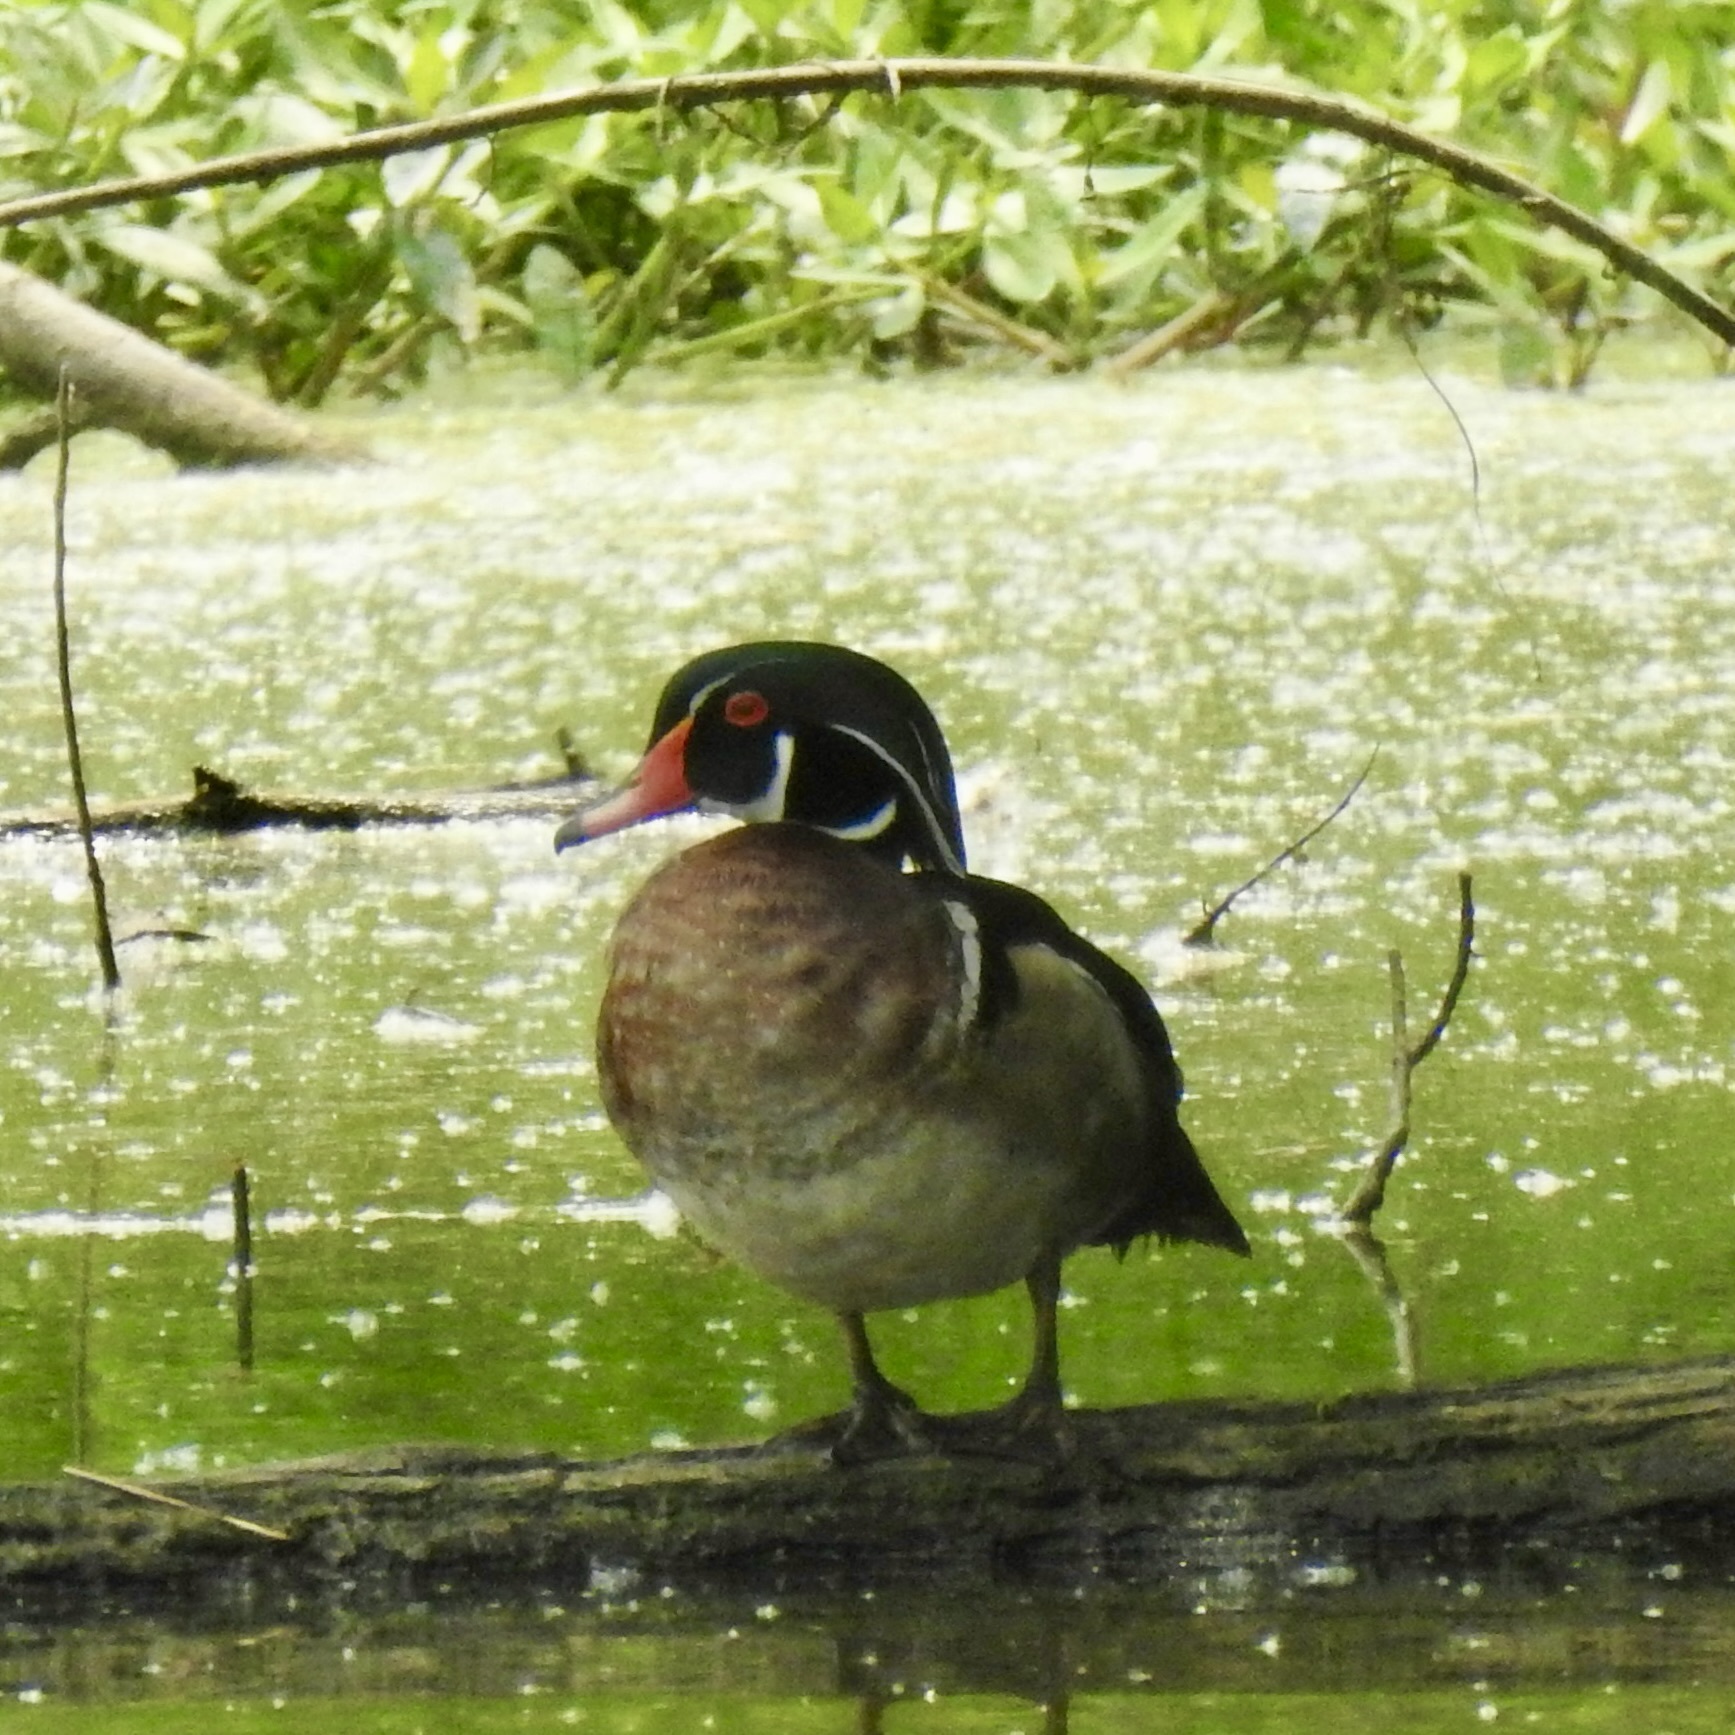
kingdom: Animalia
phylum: Chordata
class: Aves
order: Anseriformes
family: Anatidae
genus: Aix
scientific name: Aix sponsa
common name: Wood duck
